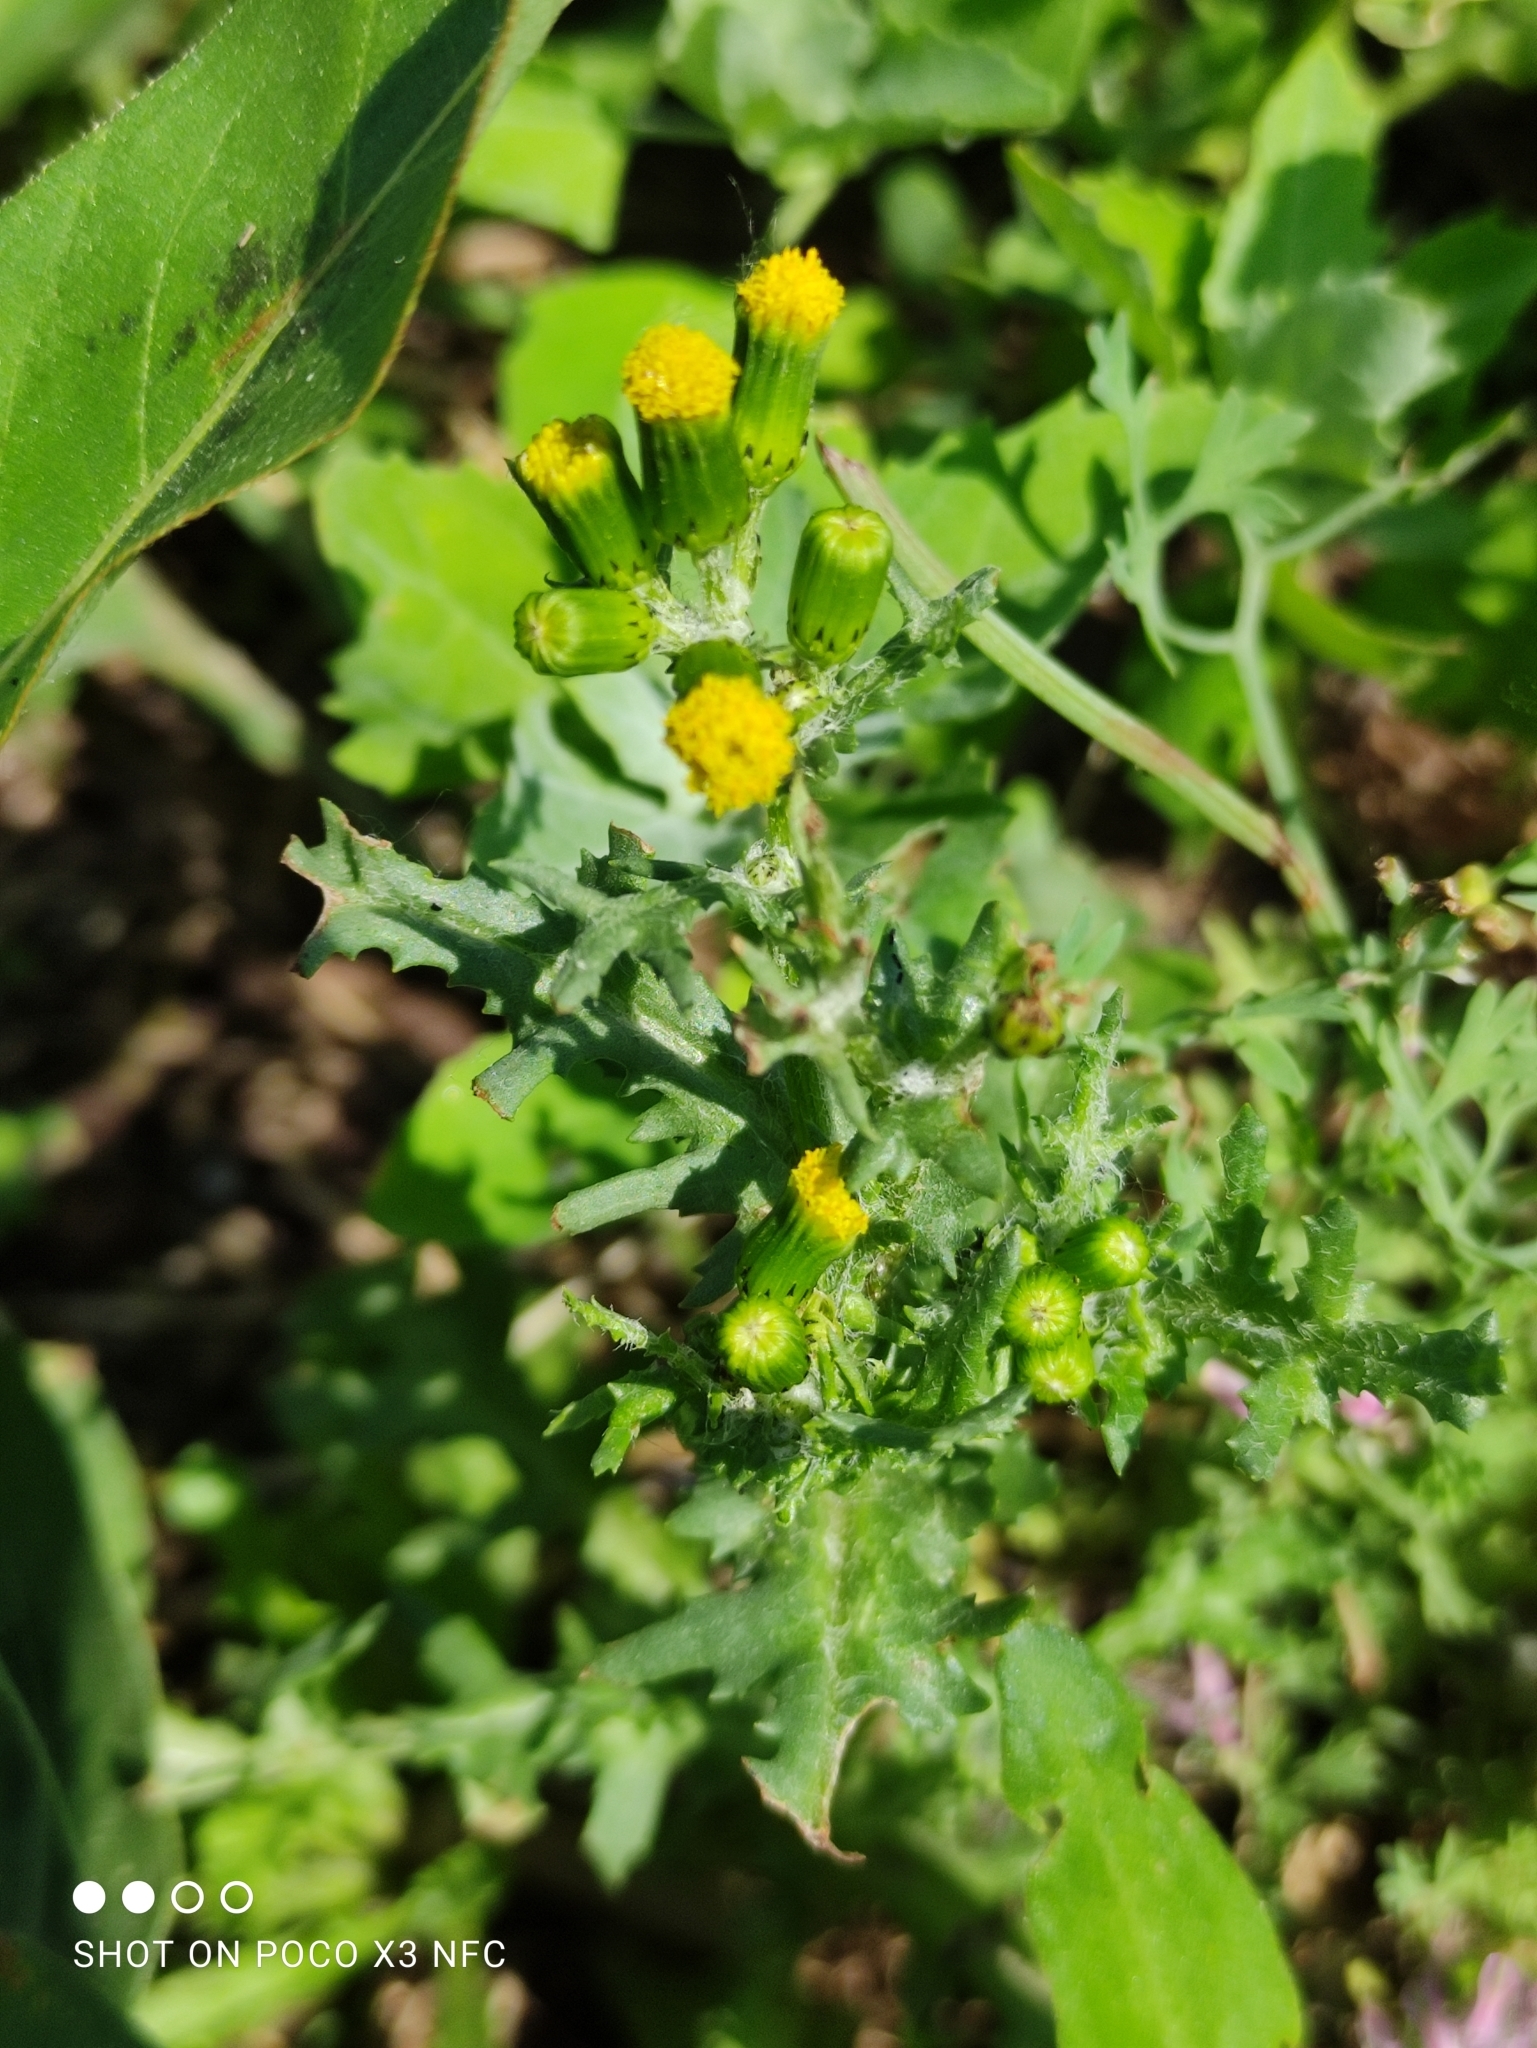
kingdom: Plantae
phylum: Tracheophyta
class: Magnoliopsida
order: Asterales
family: Asteraceae
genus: Senecio
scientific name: Senecio vulgaris
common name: Old-man-in-the-spring
